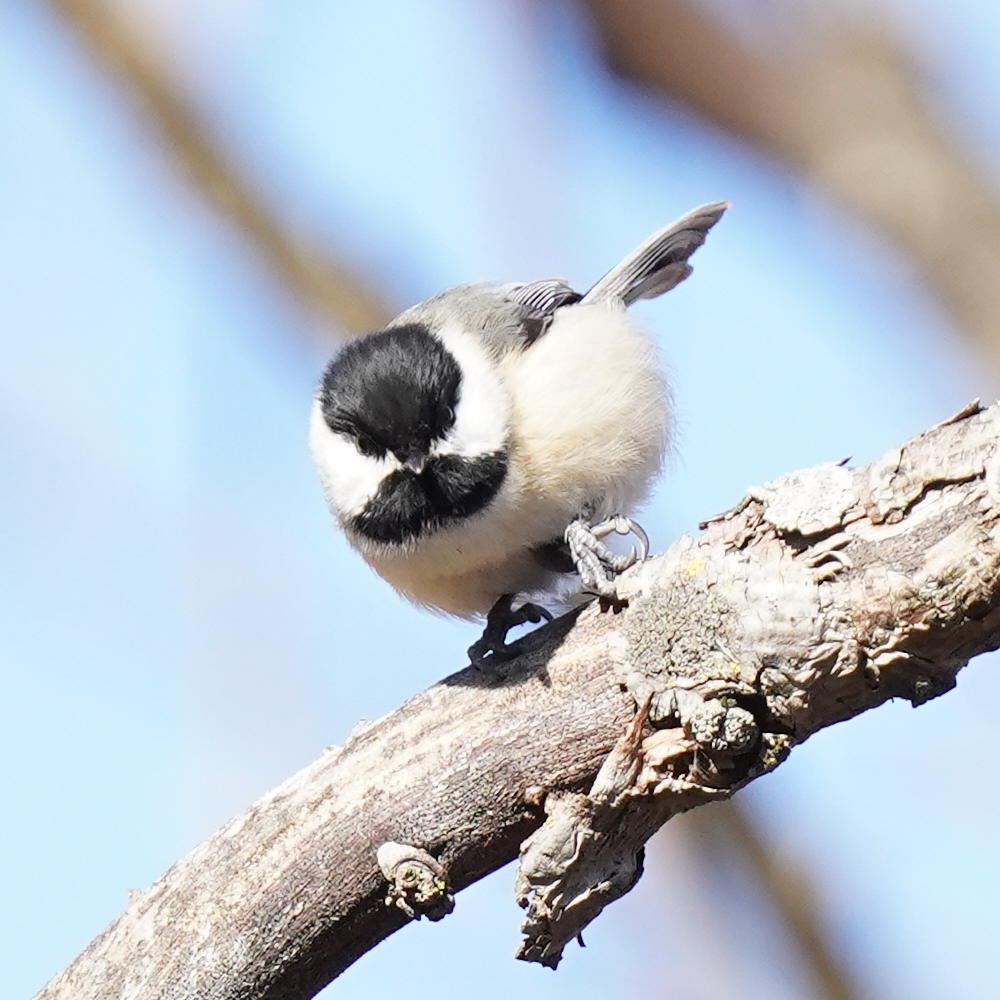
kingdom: Animalia
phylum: Chordata
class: Aves
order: Passeriformes
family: Paridae
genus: Poecile
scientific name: Poecile atricapillus
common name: Black-capped chickadee
